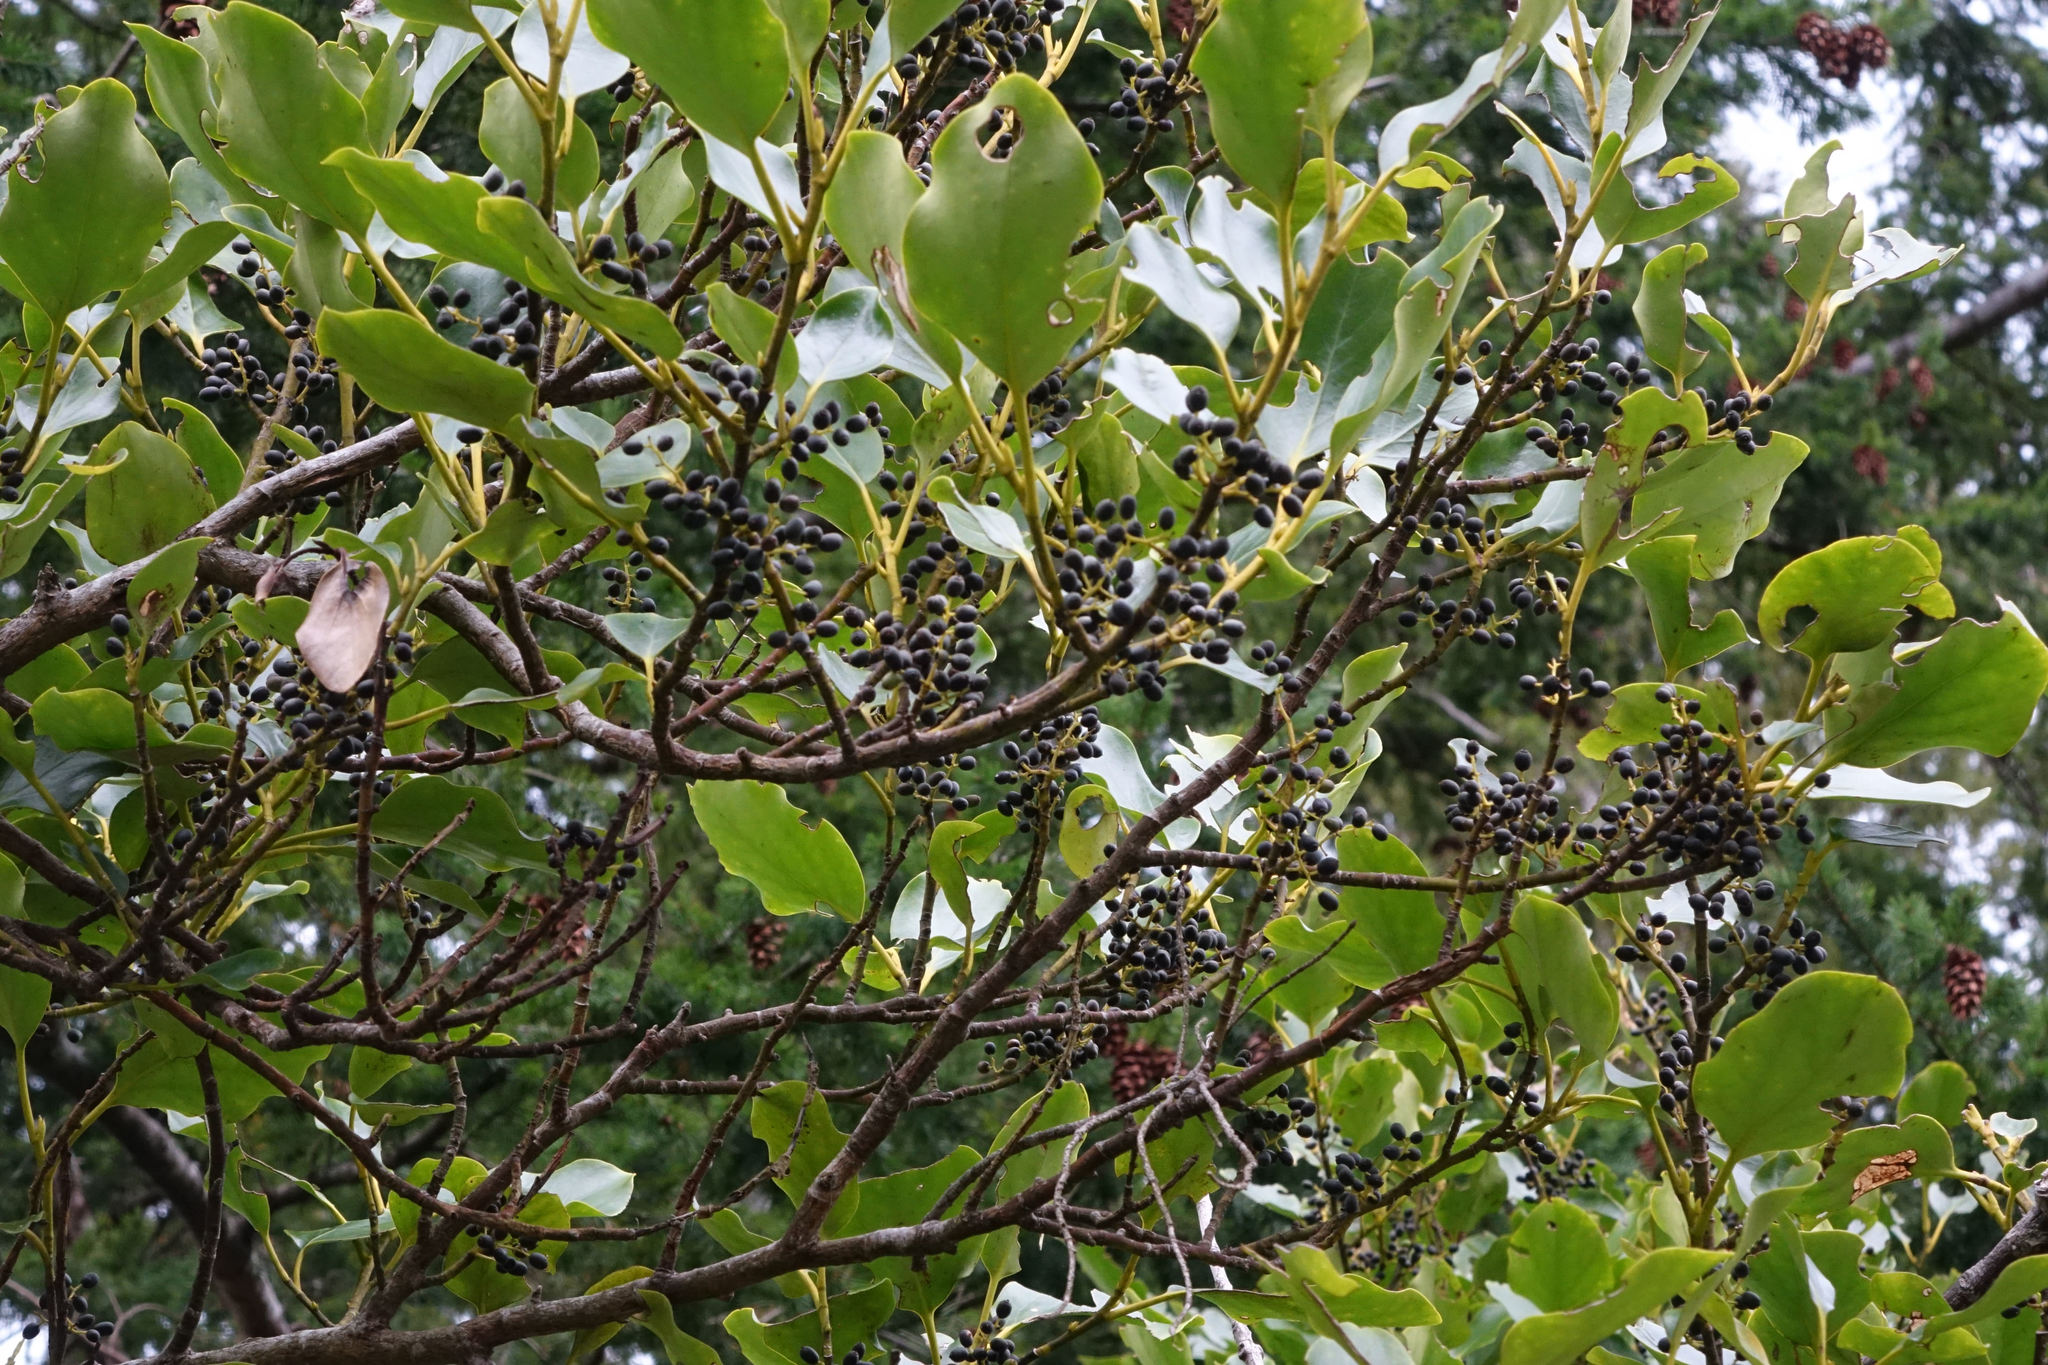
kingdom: Plantae
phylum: Tracheophyta
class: Magnoliopsida
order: Apiales
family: Griseliniaceae
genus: Griselinia
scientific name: Griselinia littoralis
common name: New zealand broadleaf
